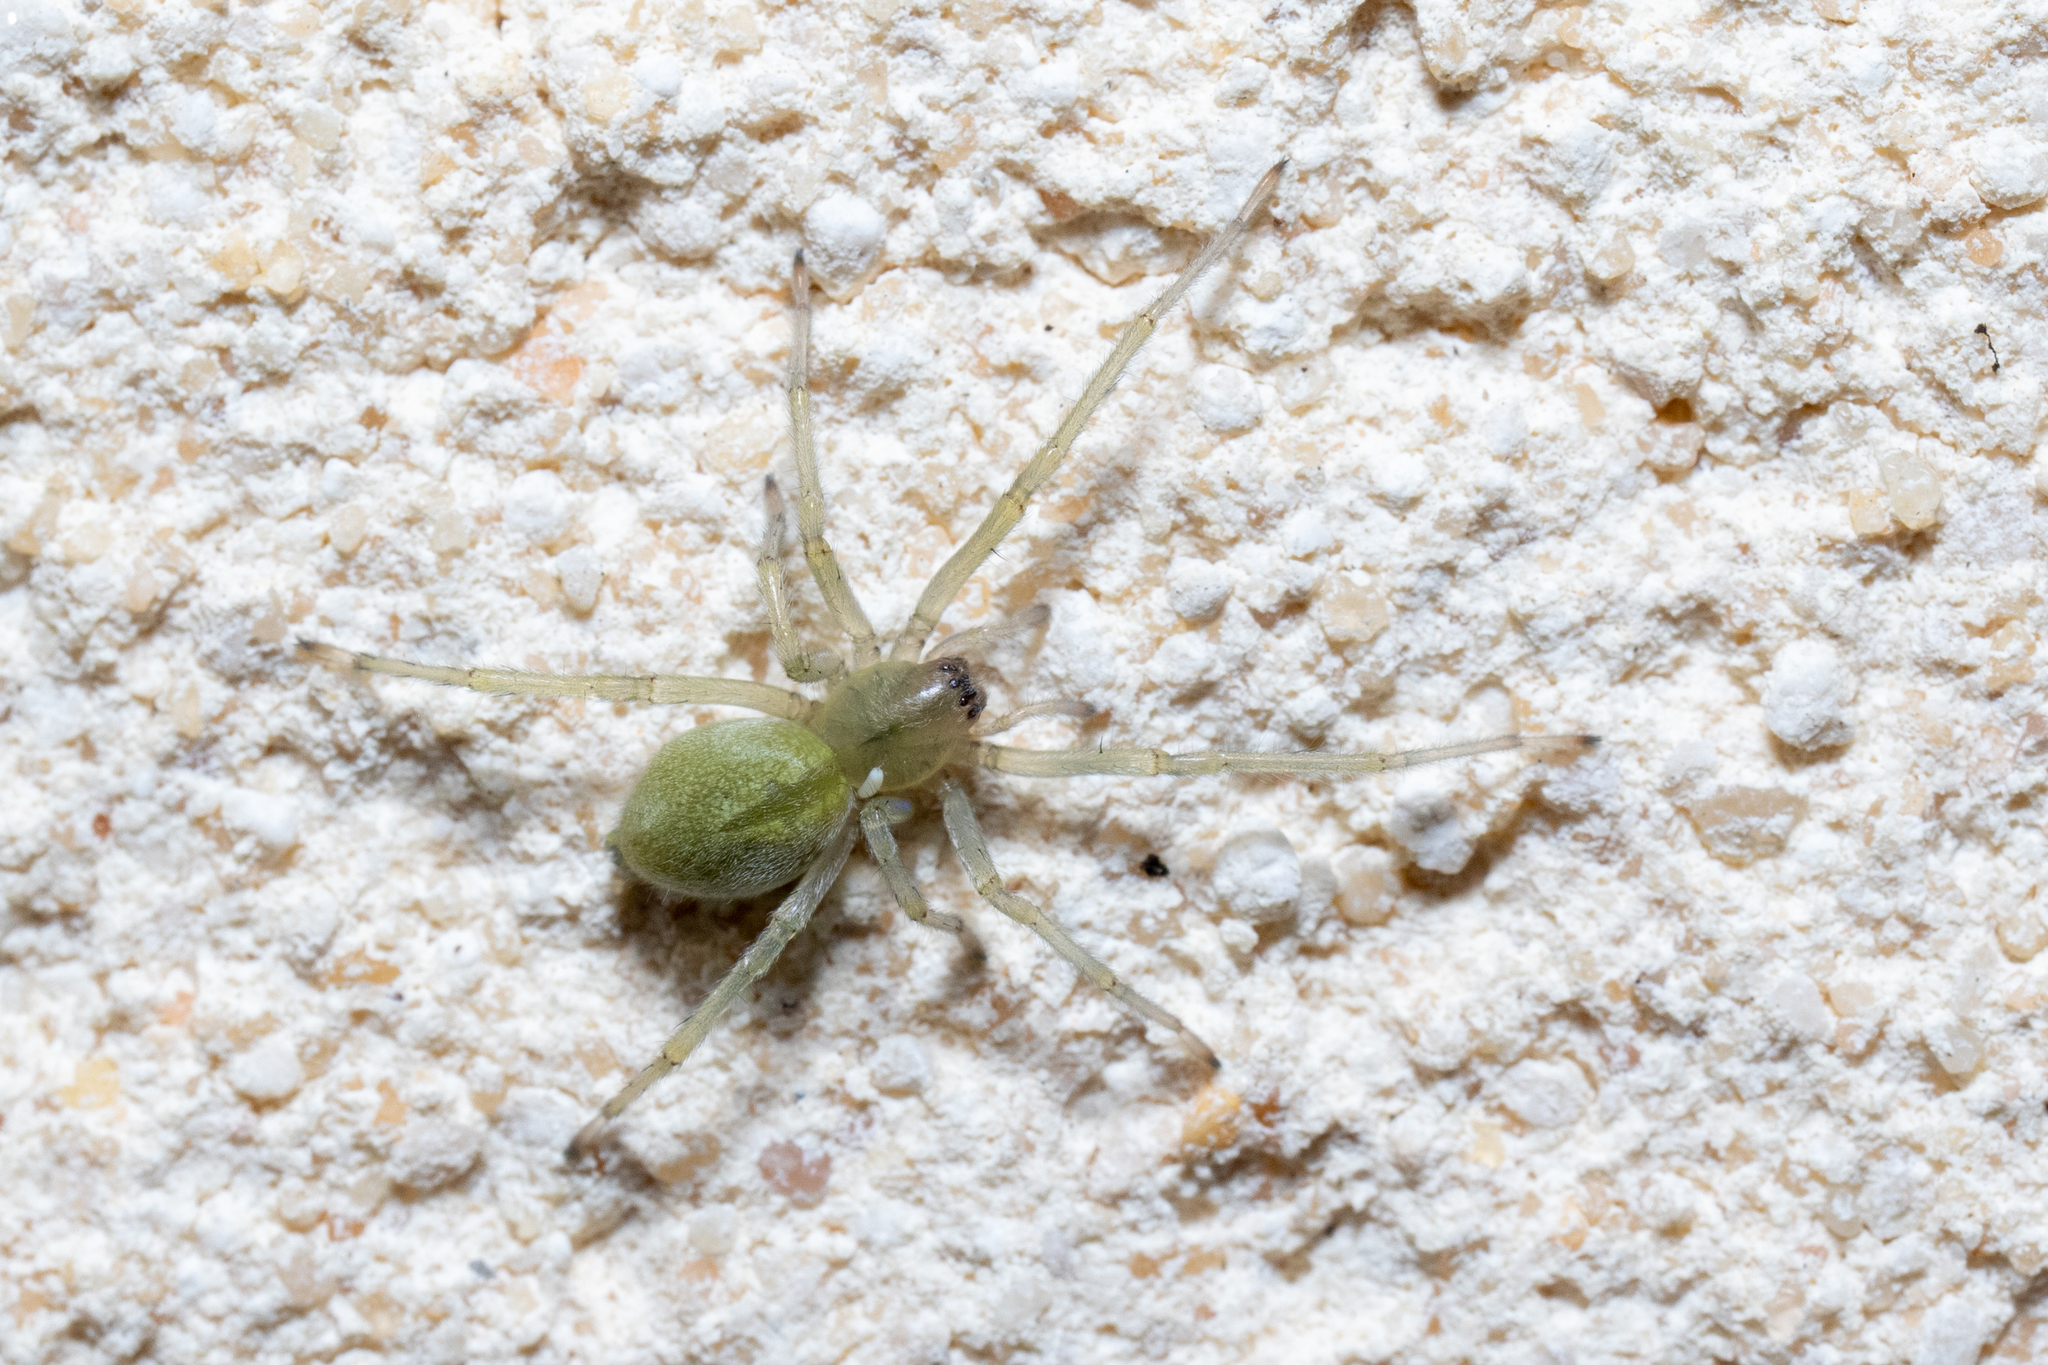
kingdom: Animalia
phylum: Arthropoda
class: Arachnida
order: Araneae
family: Cheiracanthiidae
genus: Cheiracanthium
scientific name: Cheiracanthium
